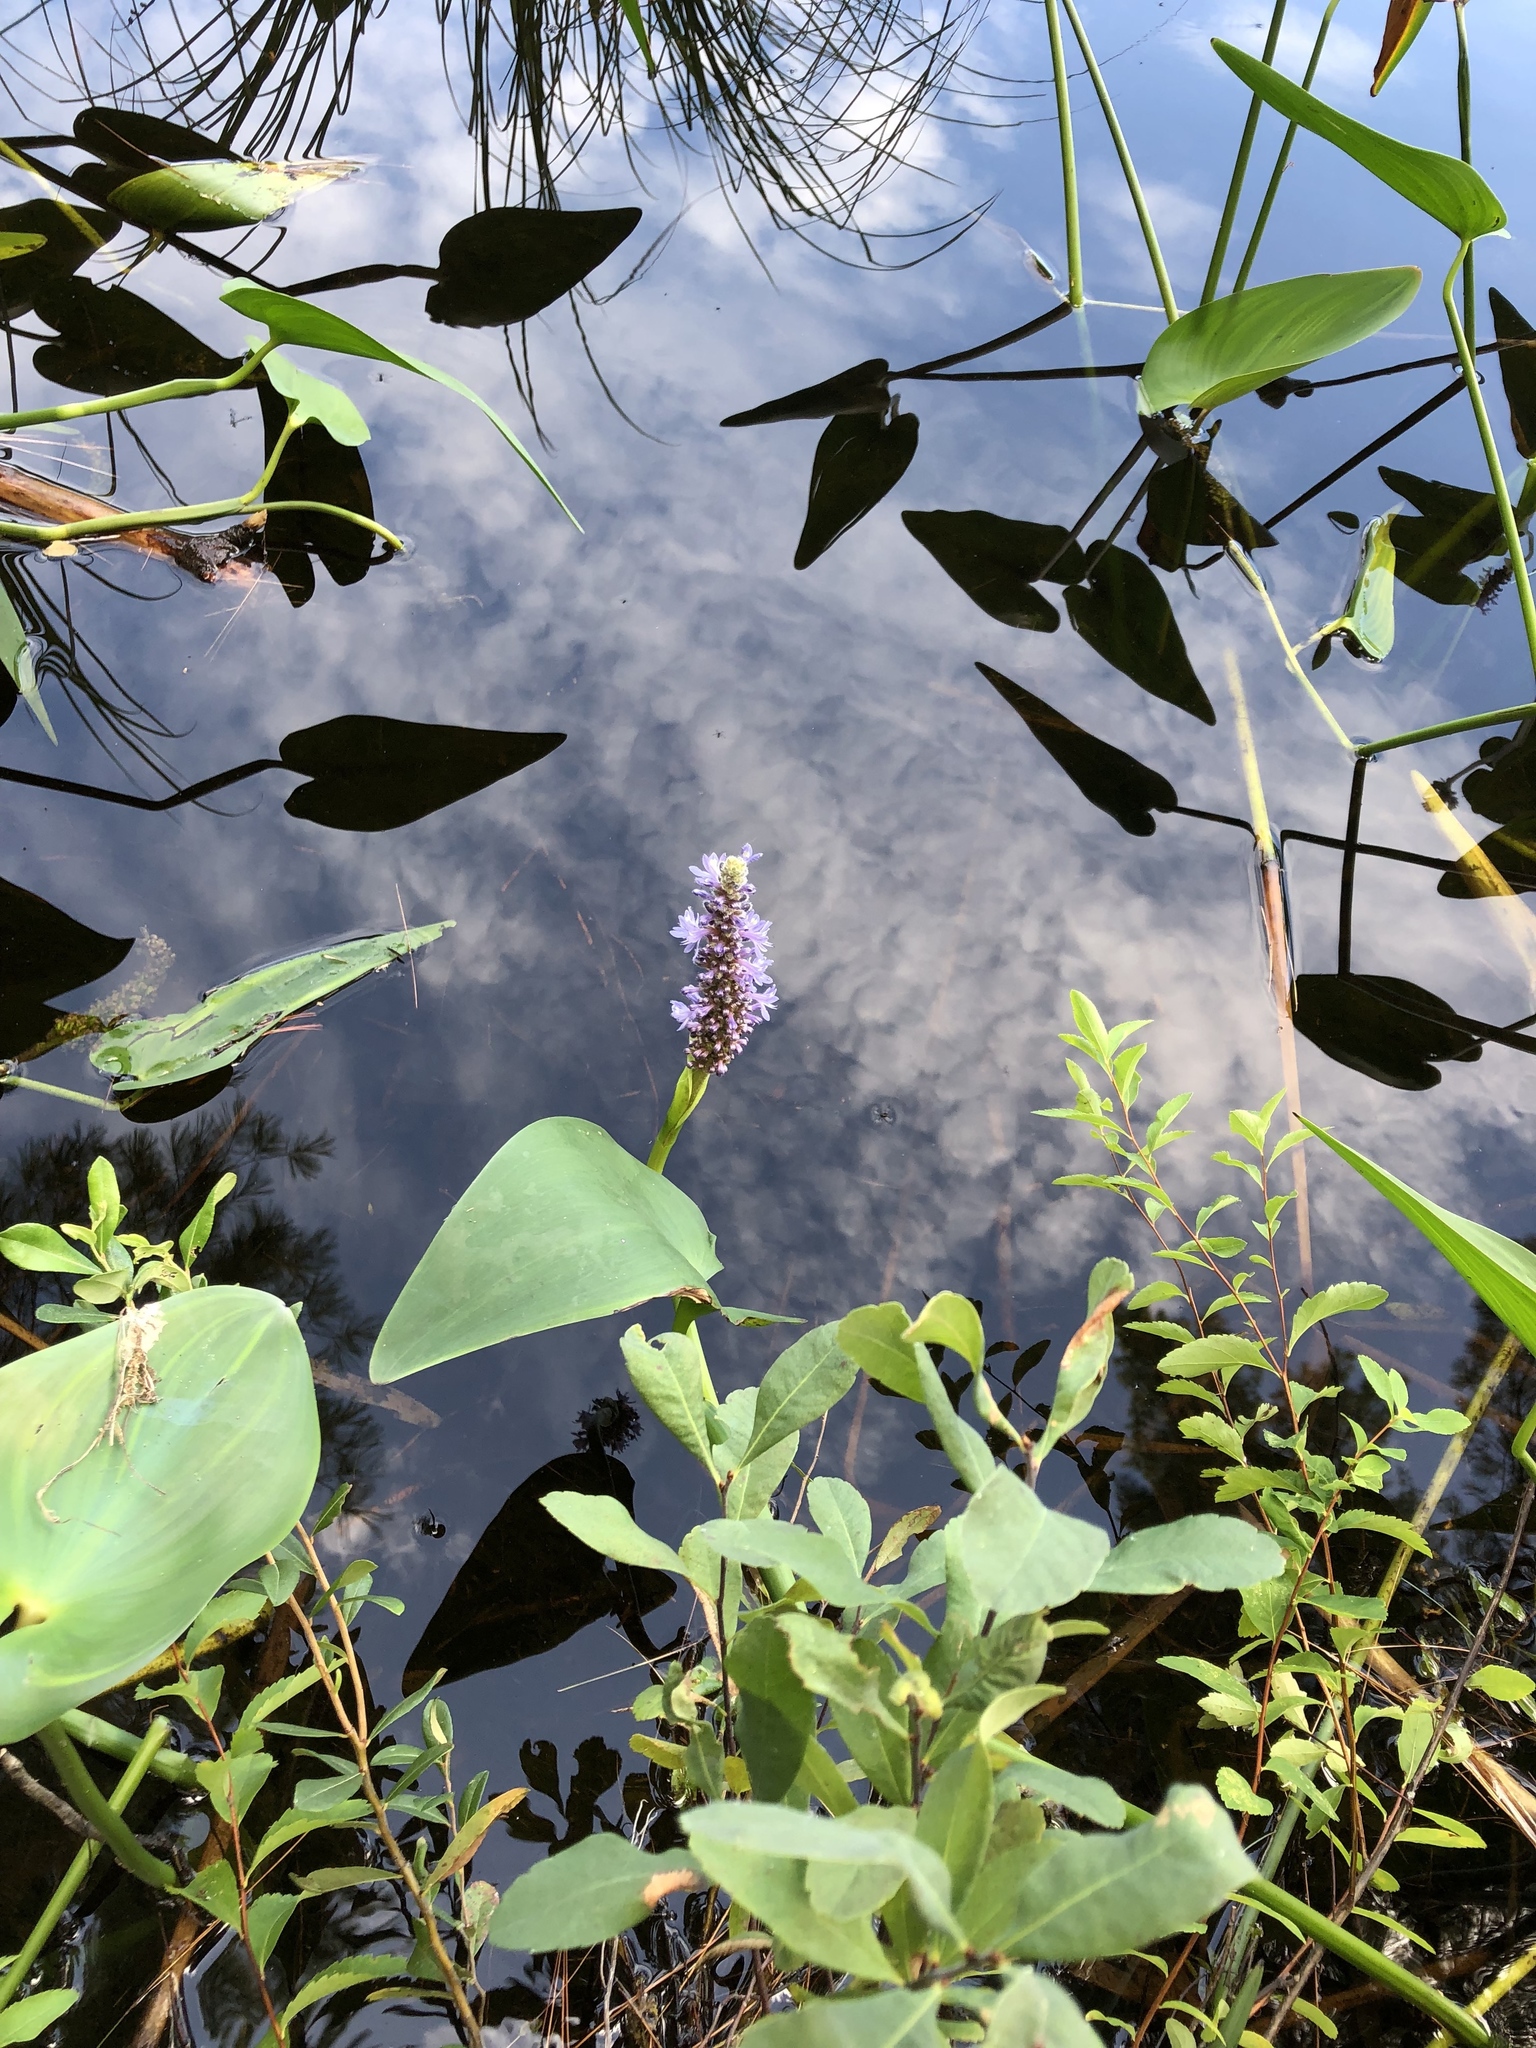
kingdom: Plantae
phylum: Tracheophyta
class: Liliopsida
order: Commelinales
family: Pontederiaceae
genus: Pontederia
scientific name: Pontederia cordata
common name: Pickerelweed
